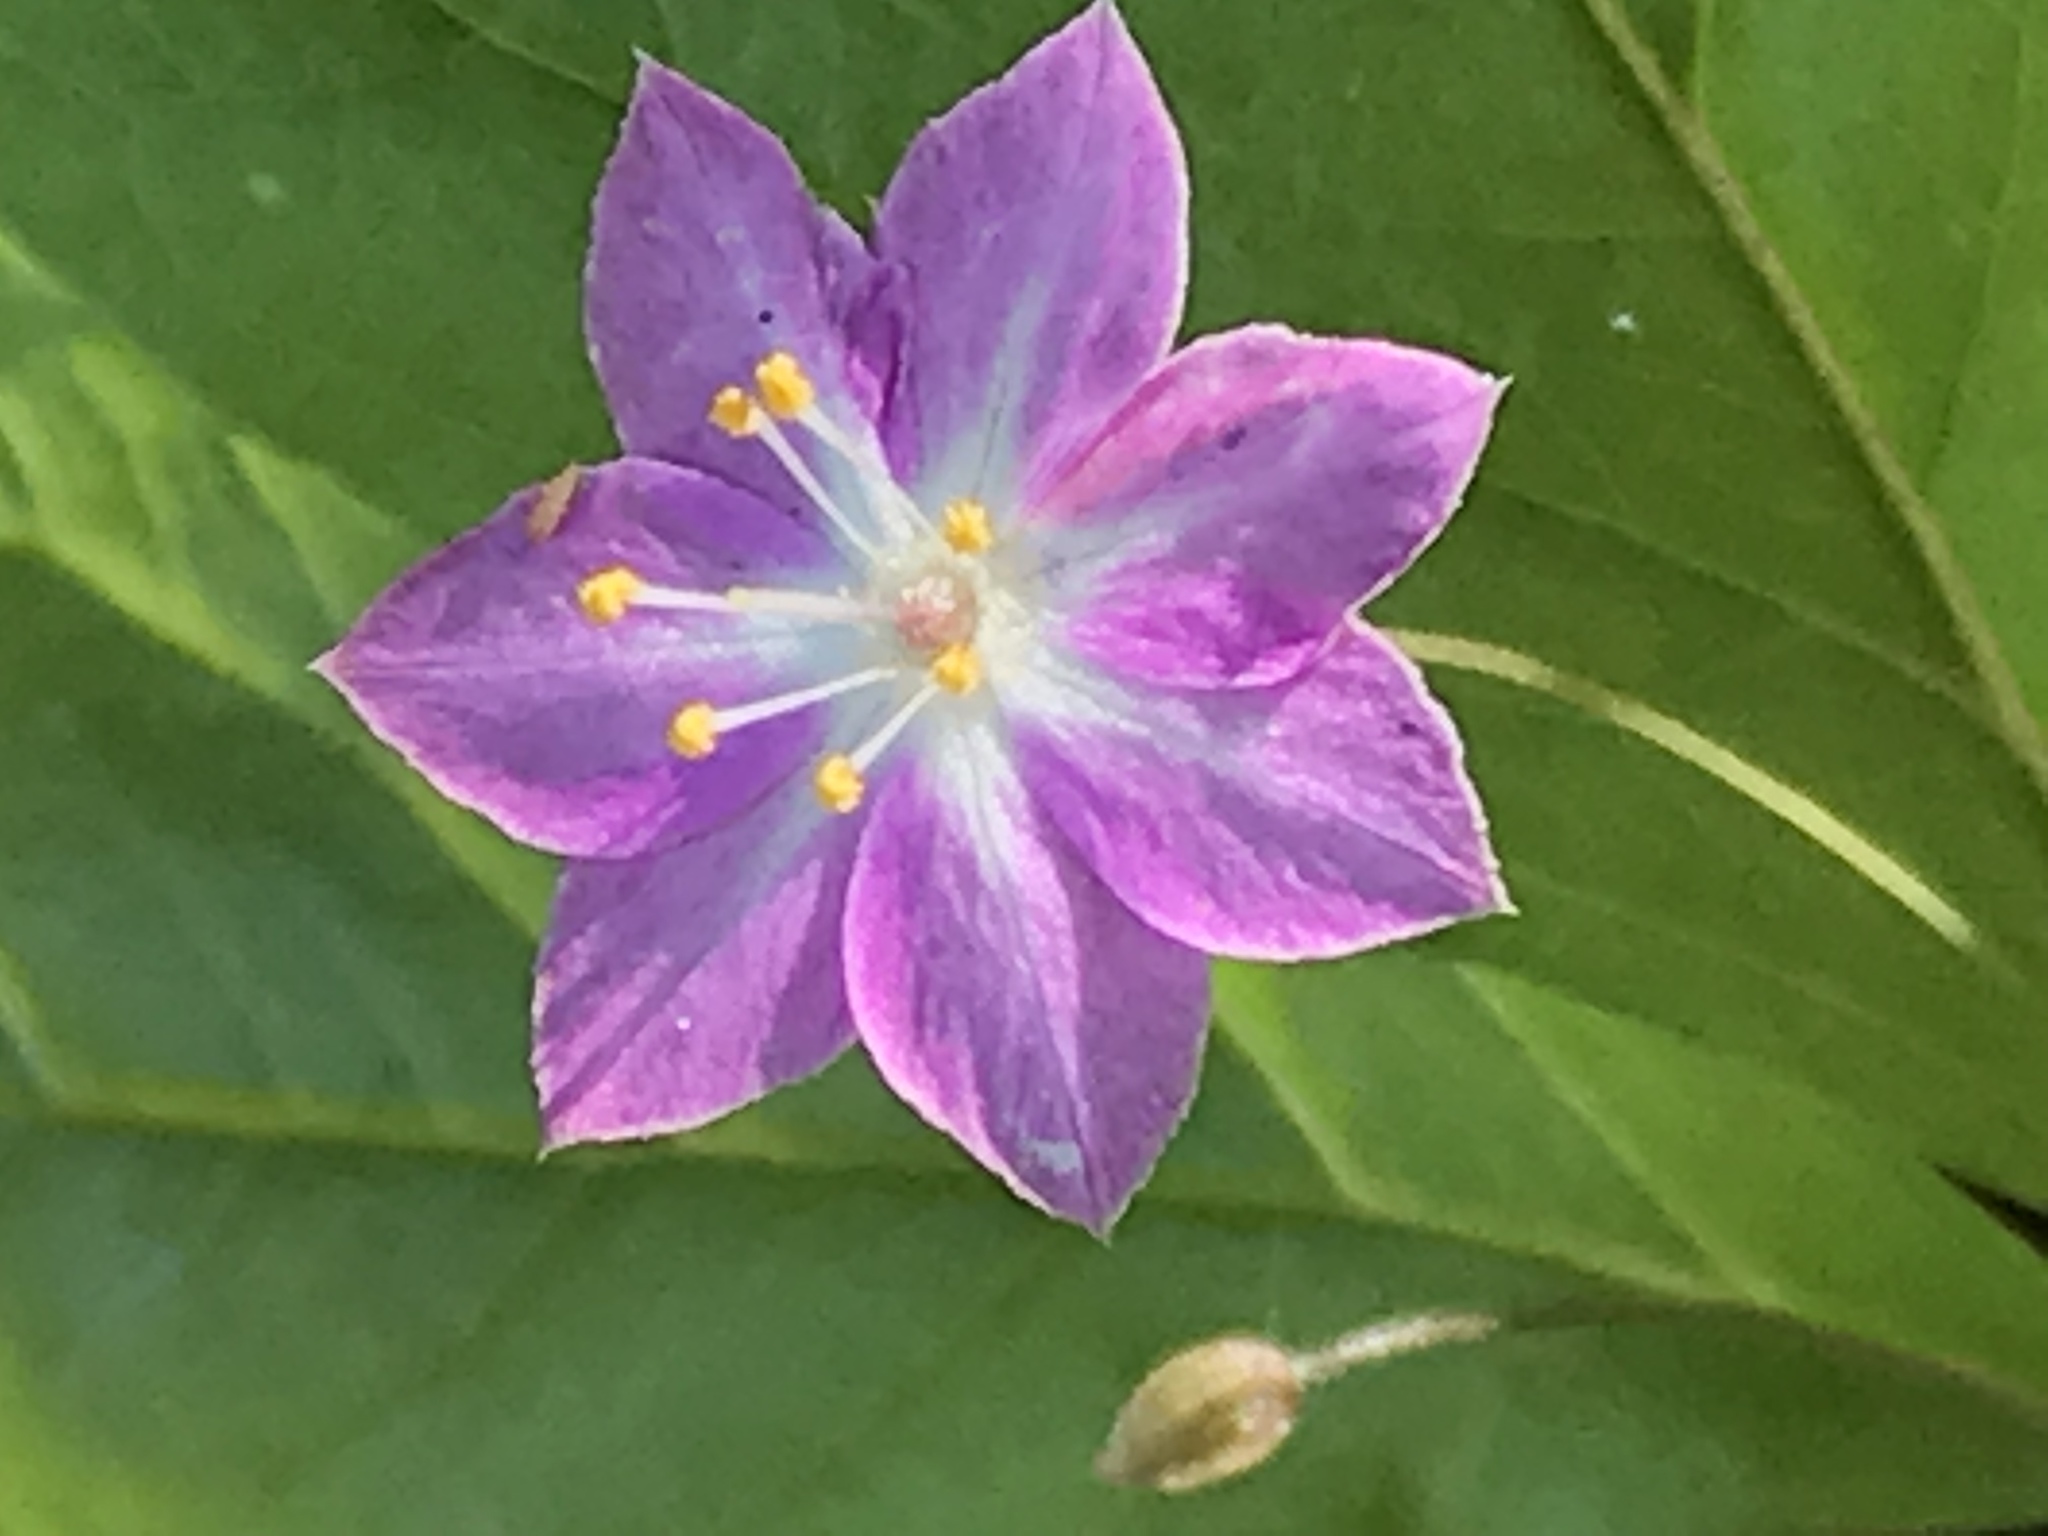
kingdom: Plantae
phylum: Tracheophyta
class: Magnoliopsida
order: Ericales
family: Primulaceae
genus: Lysimachia
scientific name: Lysimachia latifolia
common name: Pacific starflower
